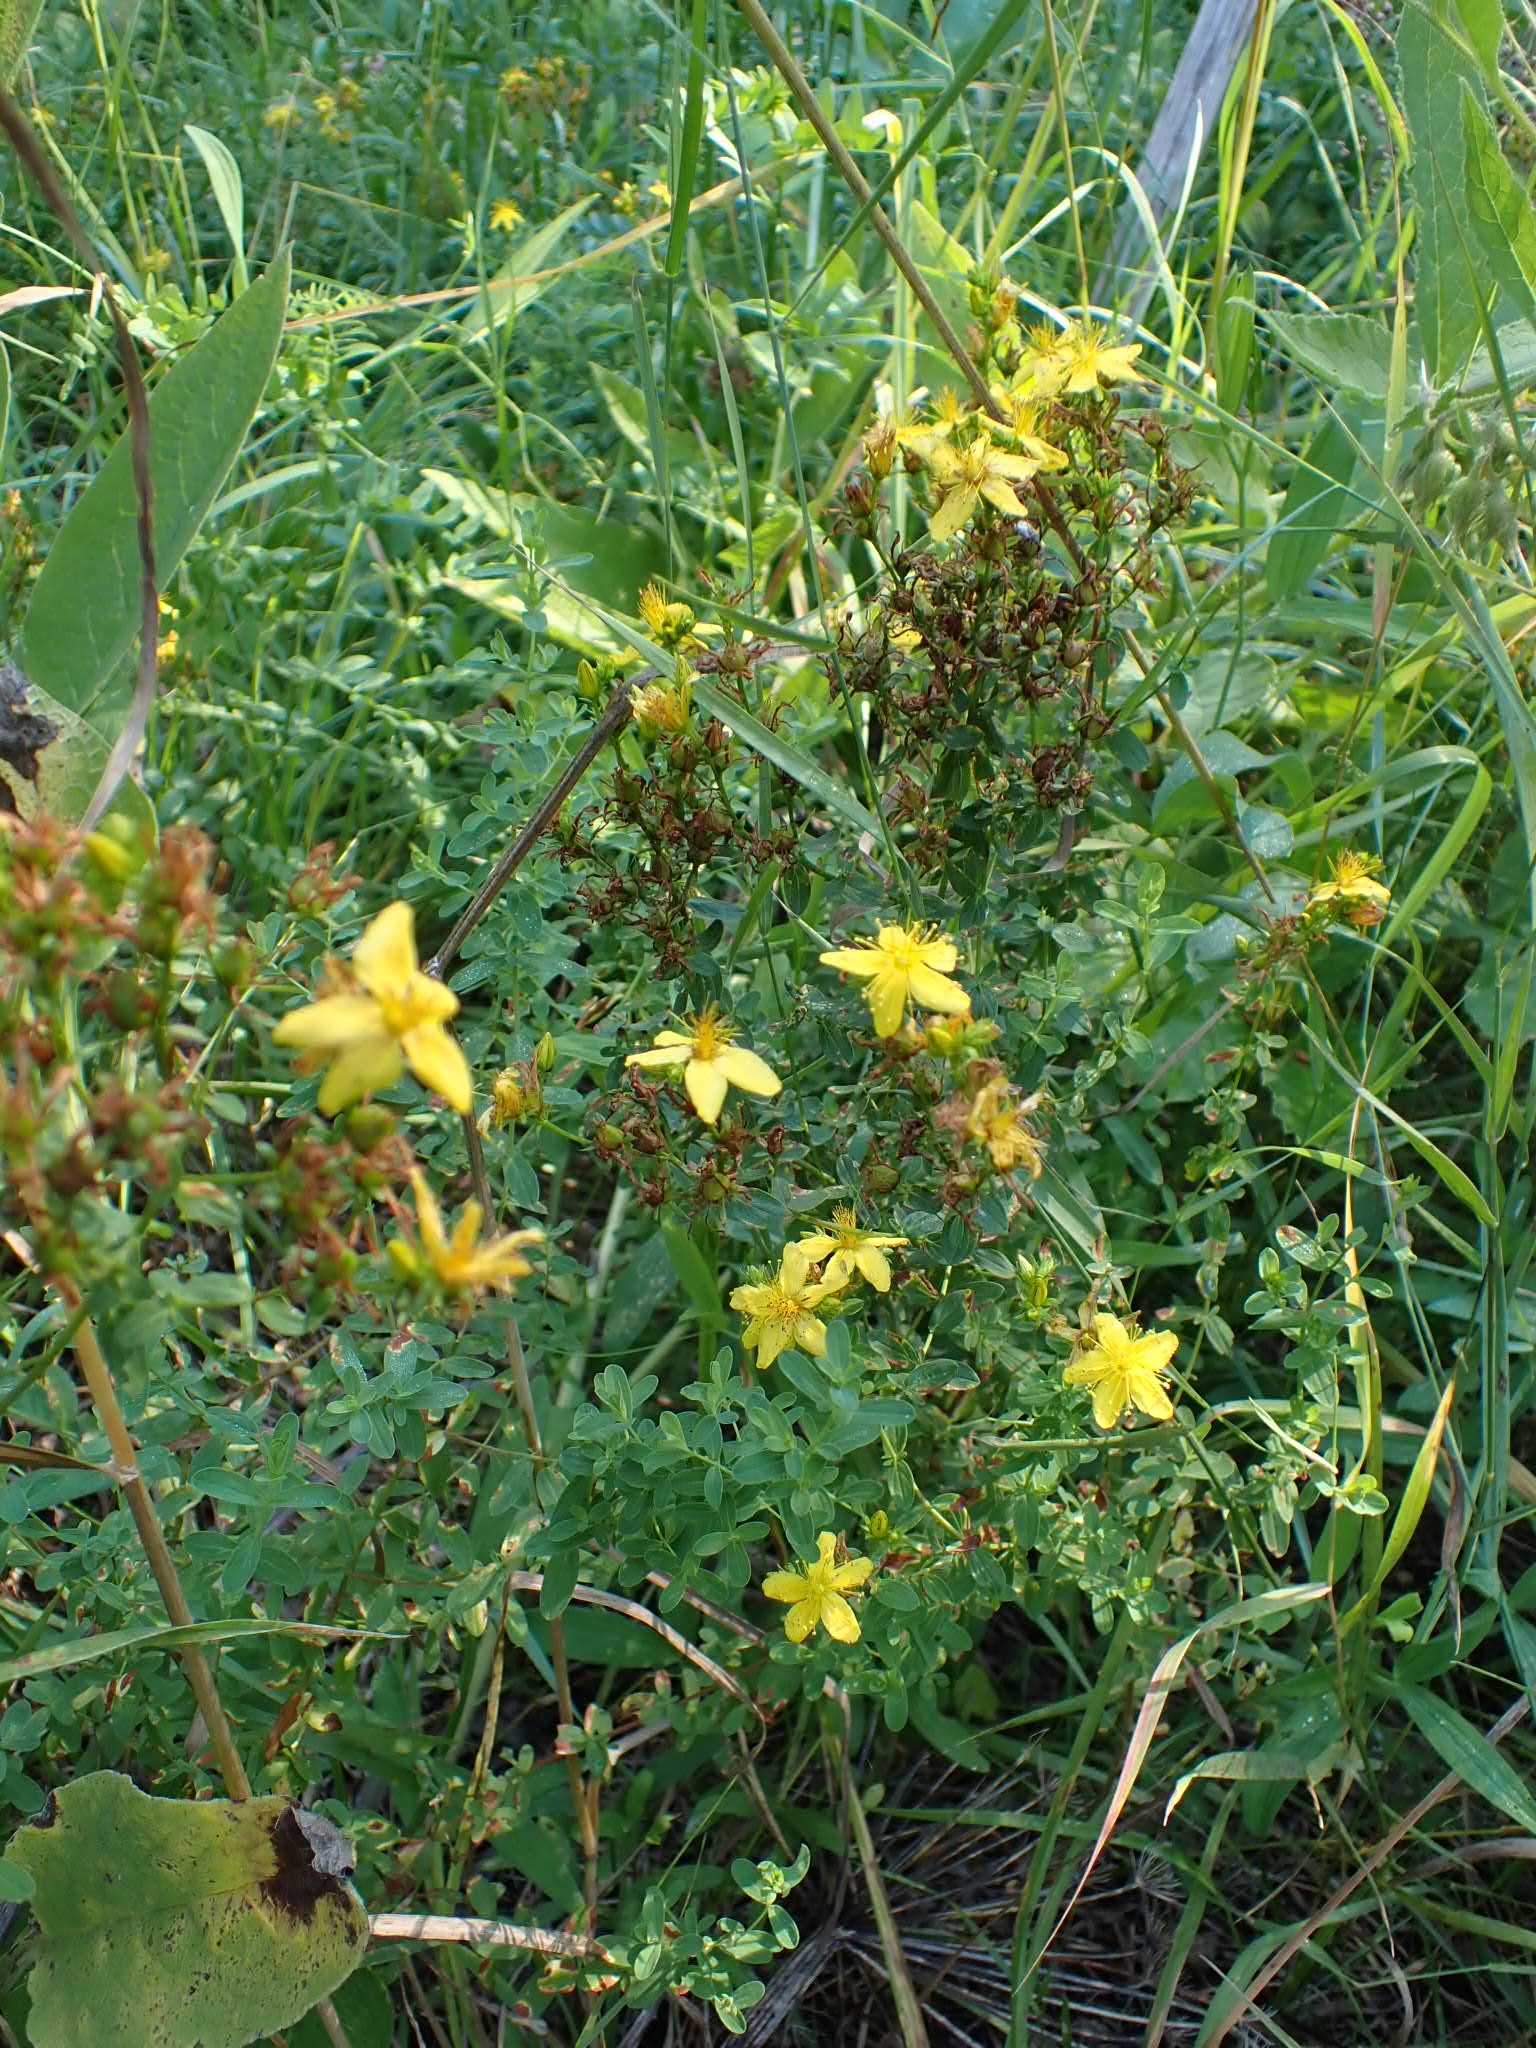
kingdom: Plantae
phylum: Tracheophyta
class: Magnoliopsida
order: Malpighiales
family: Hypericaceae
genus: Hypericum
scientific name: Hypericum perforatum
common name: Common st. johnswort
